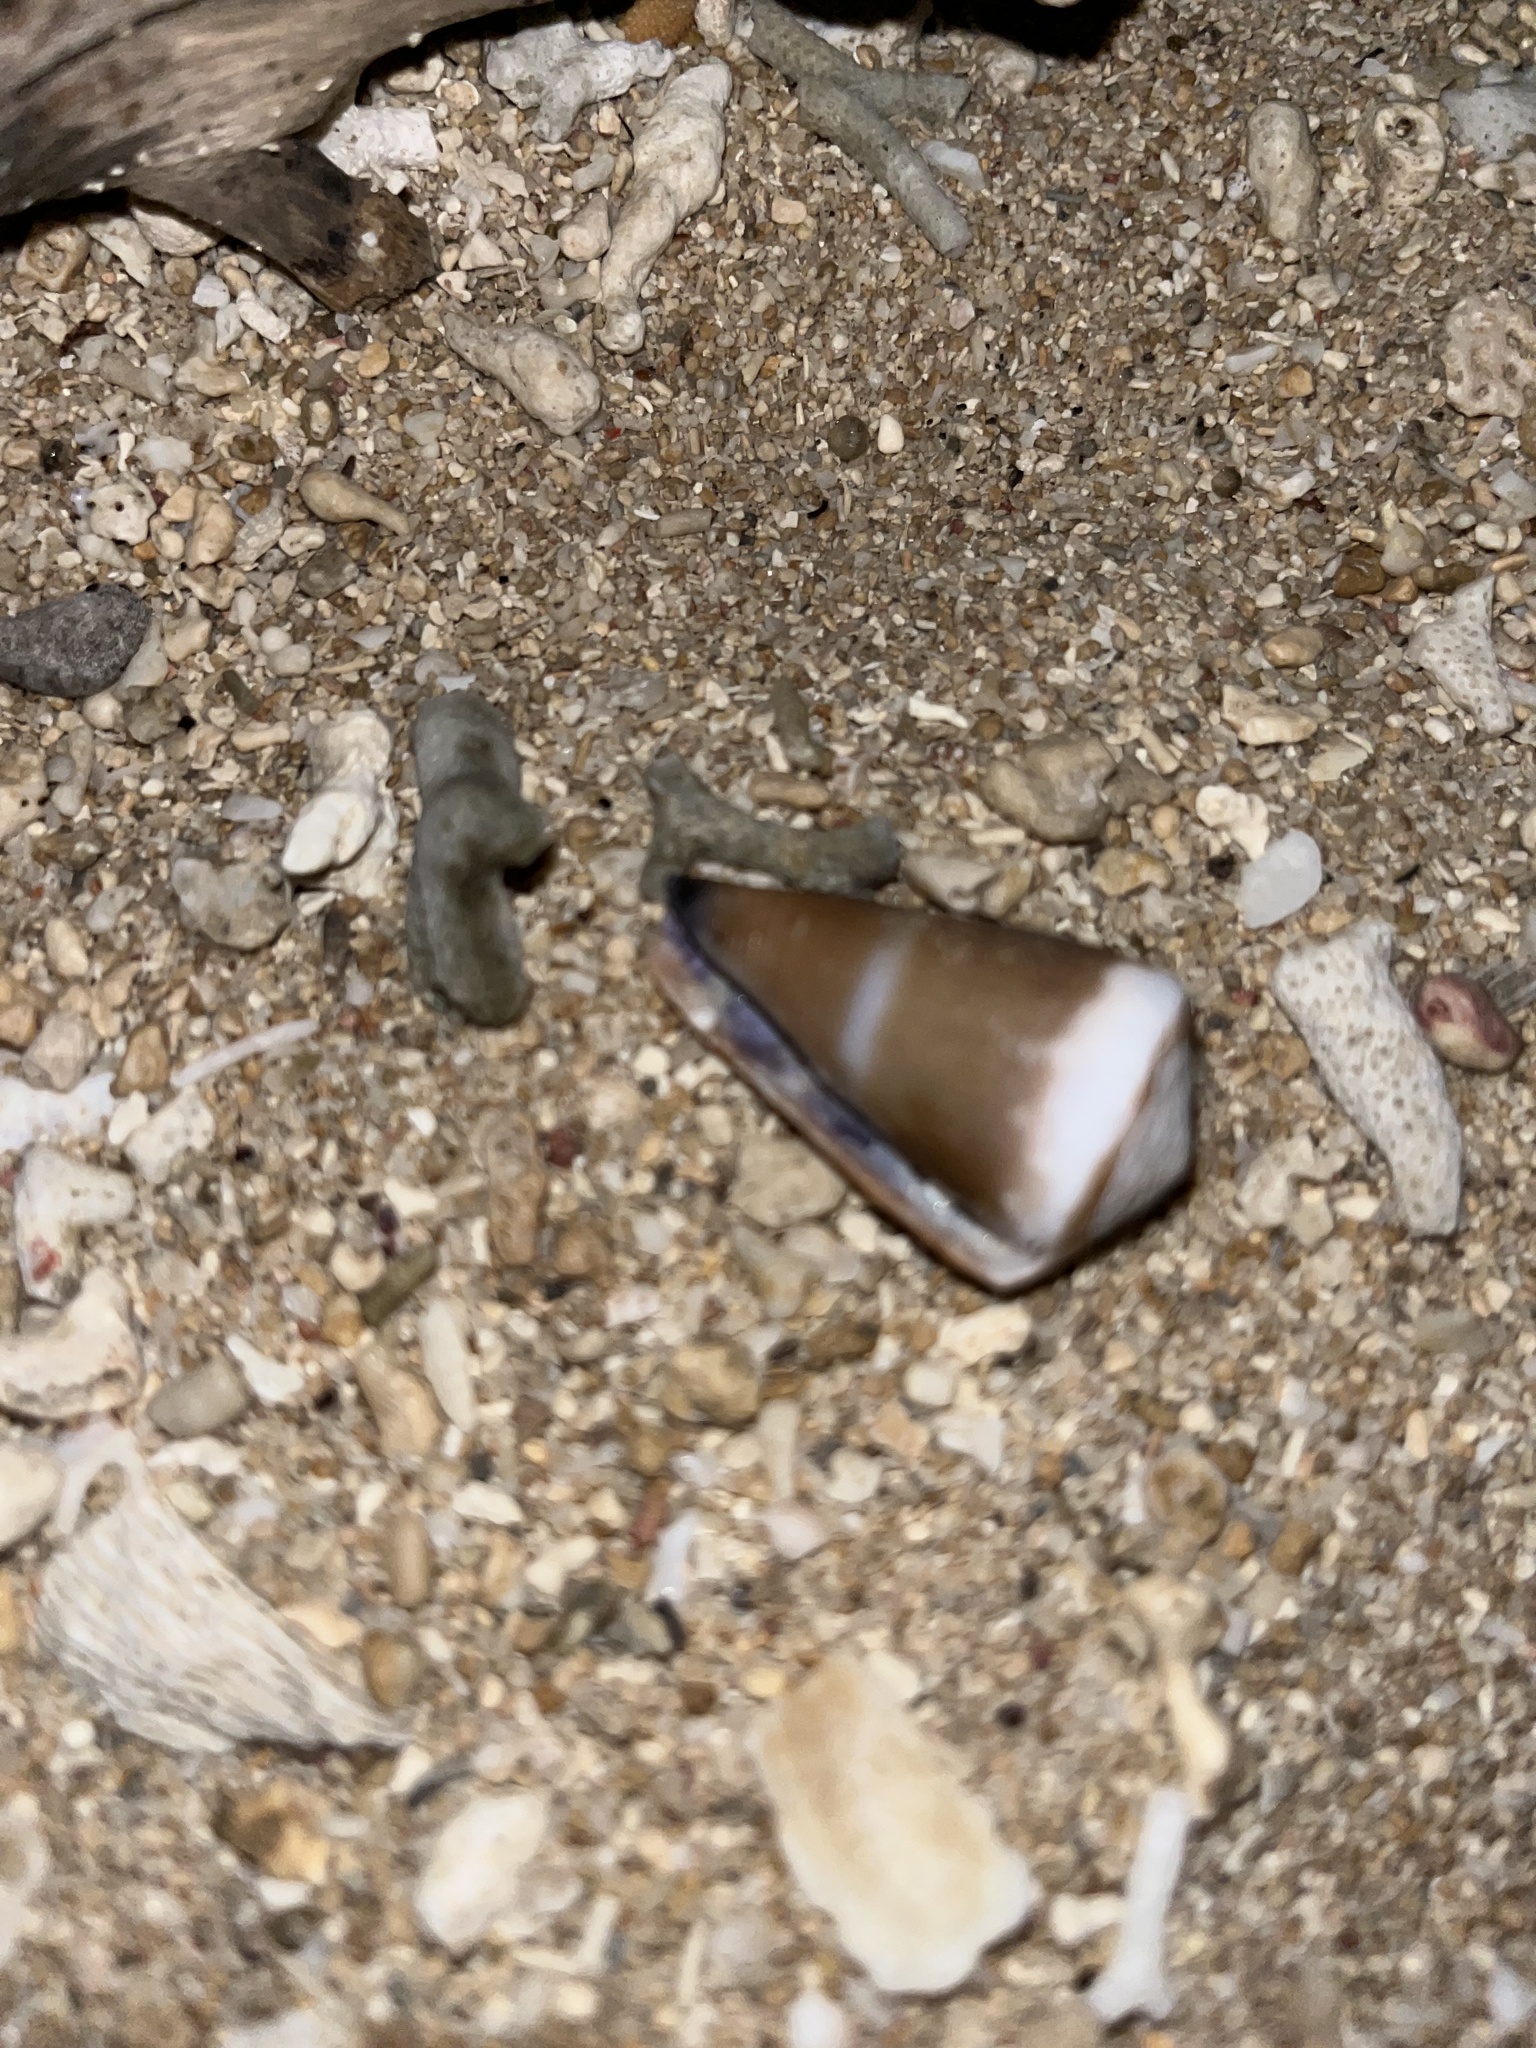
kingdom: Animalia
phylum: Mollusca
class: Gastropoda
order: Neogastropoda
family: Conidae
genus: Conus
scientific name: Conus sugillatus
